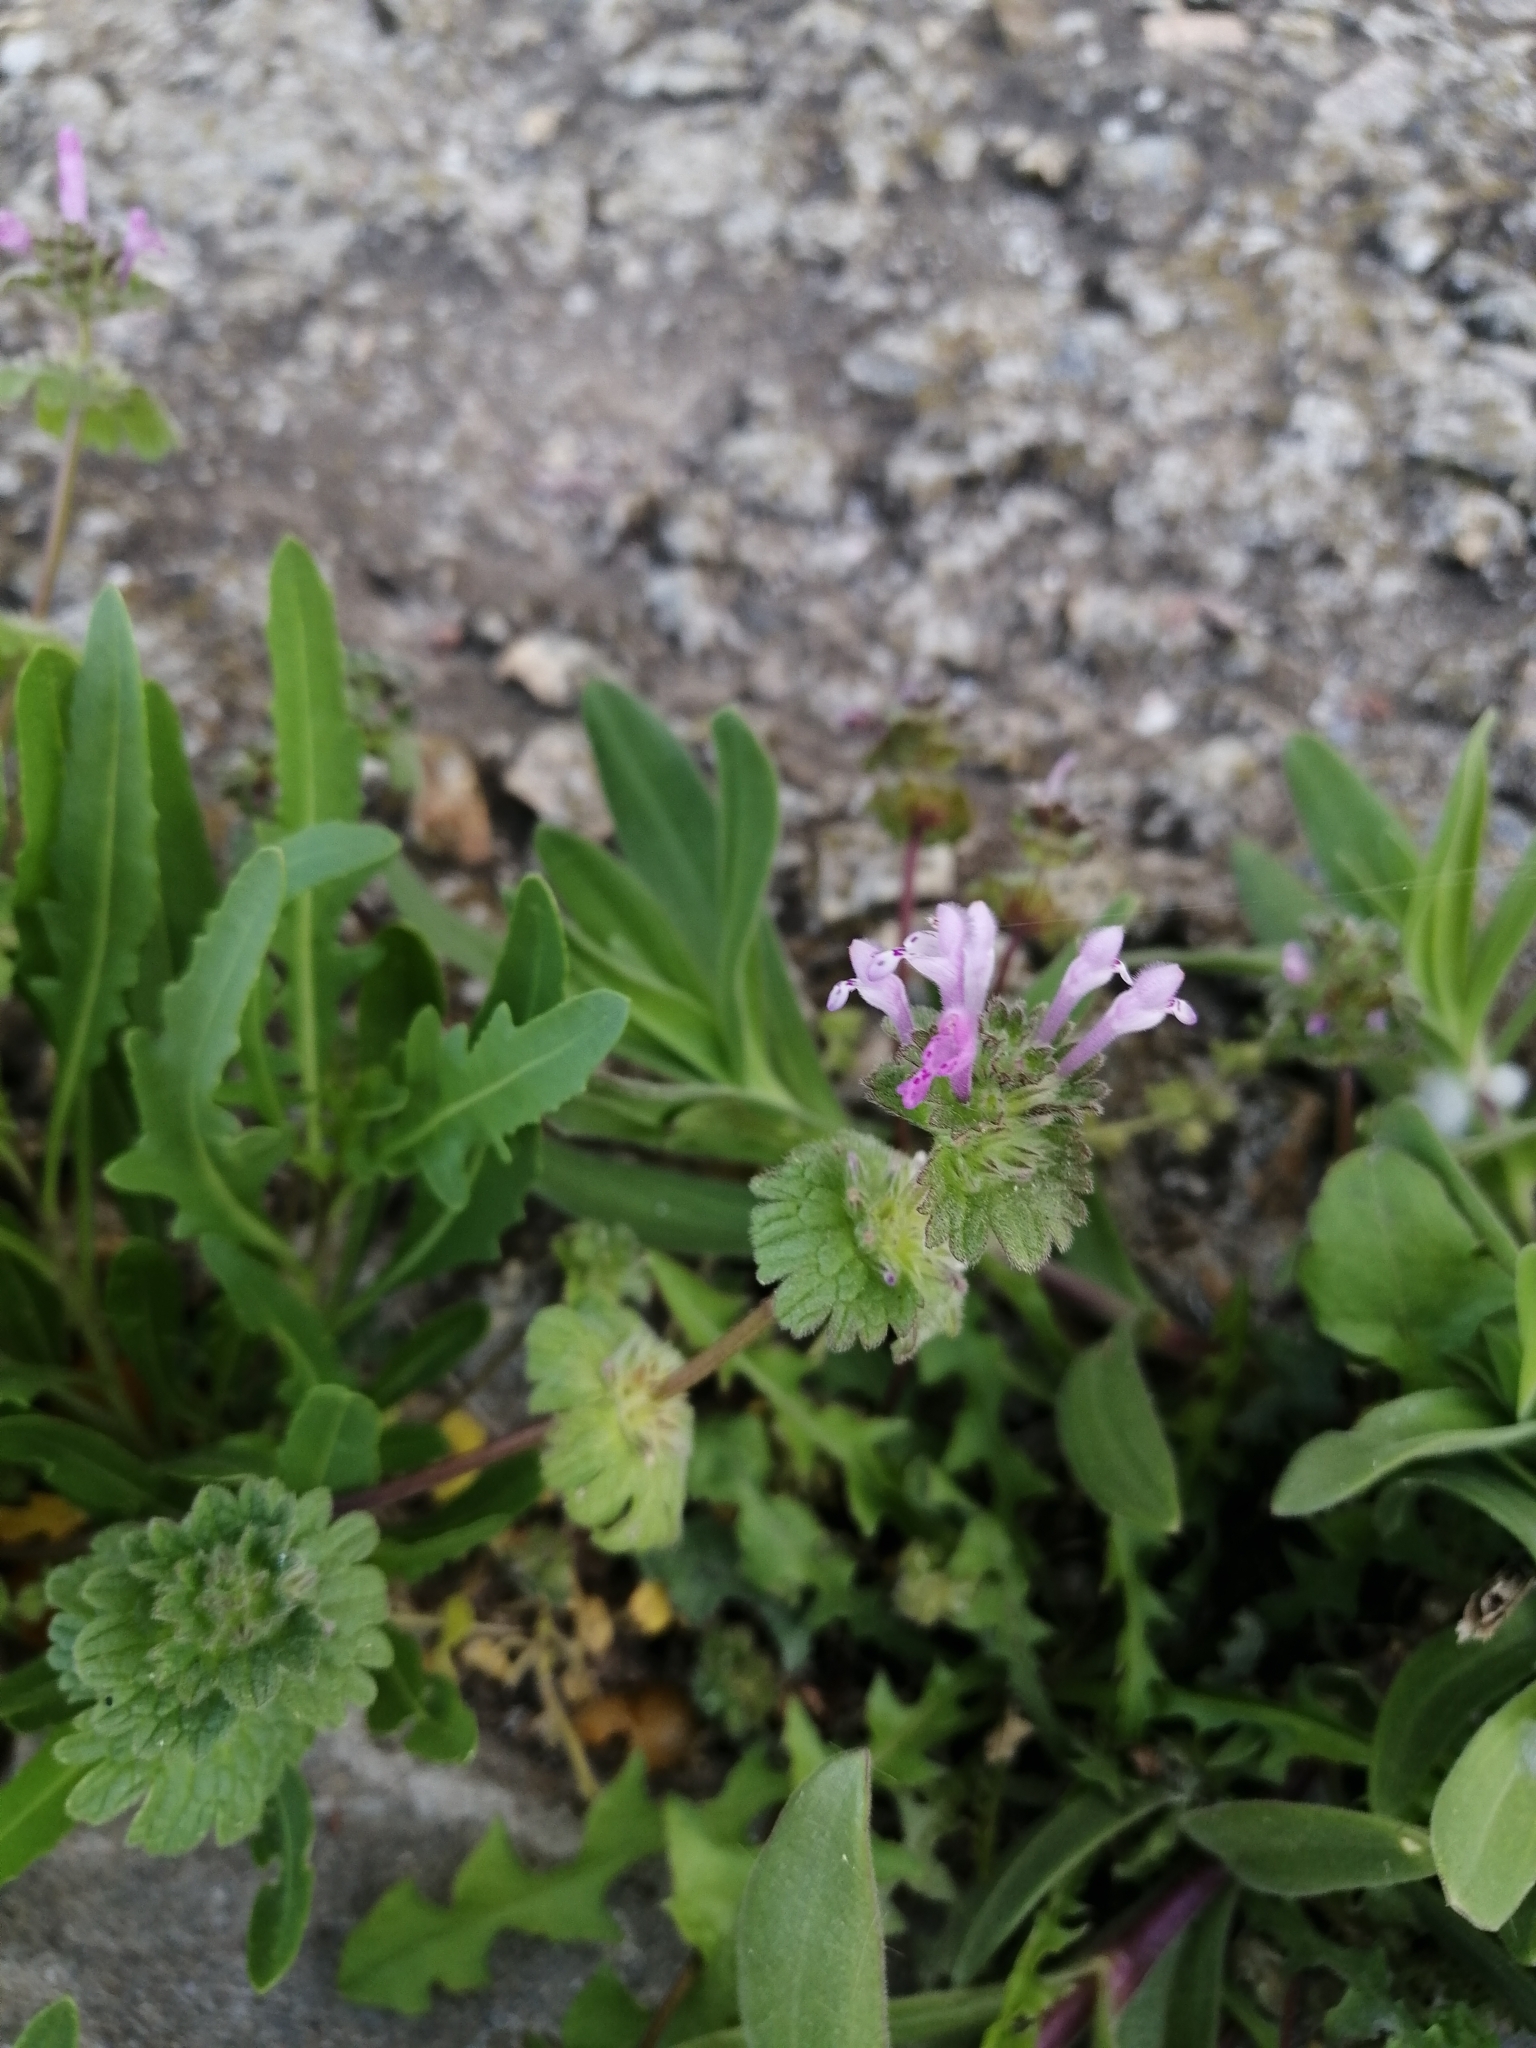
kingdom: Plantae
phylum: Tracheophyta
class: Magnoliopsida
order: Lamiales
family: Lamiaceae
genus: Lamium
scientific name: Lamium amplexicaule
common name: Henbit dead-nettle
